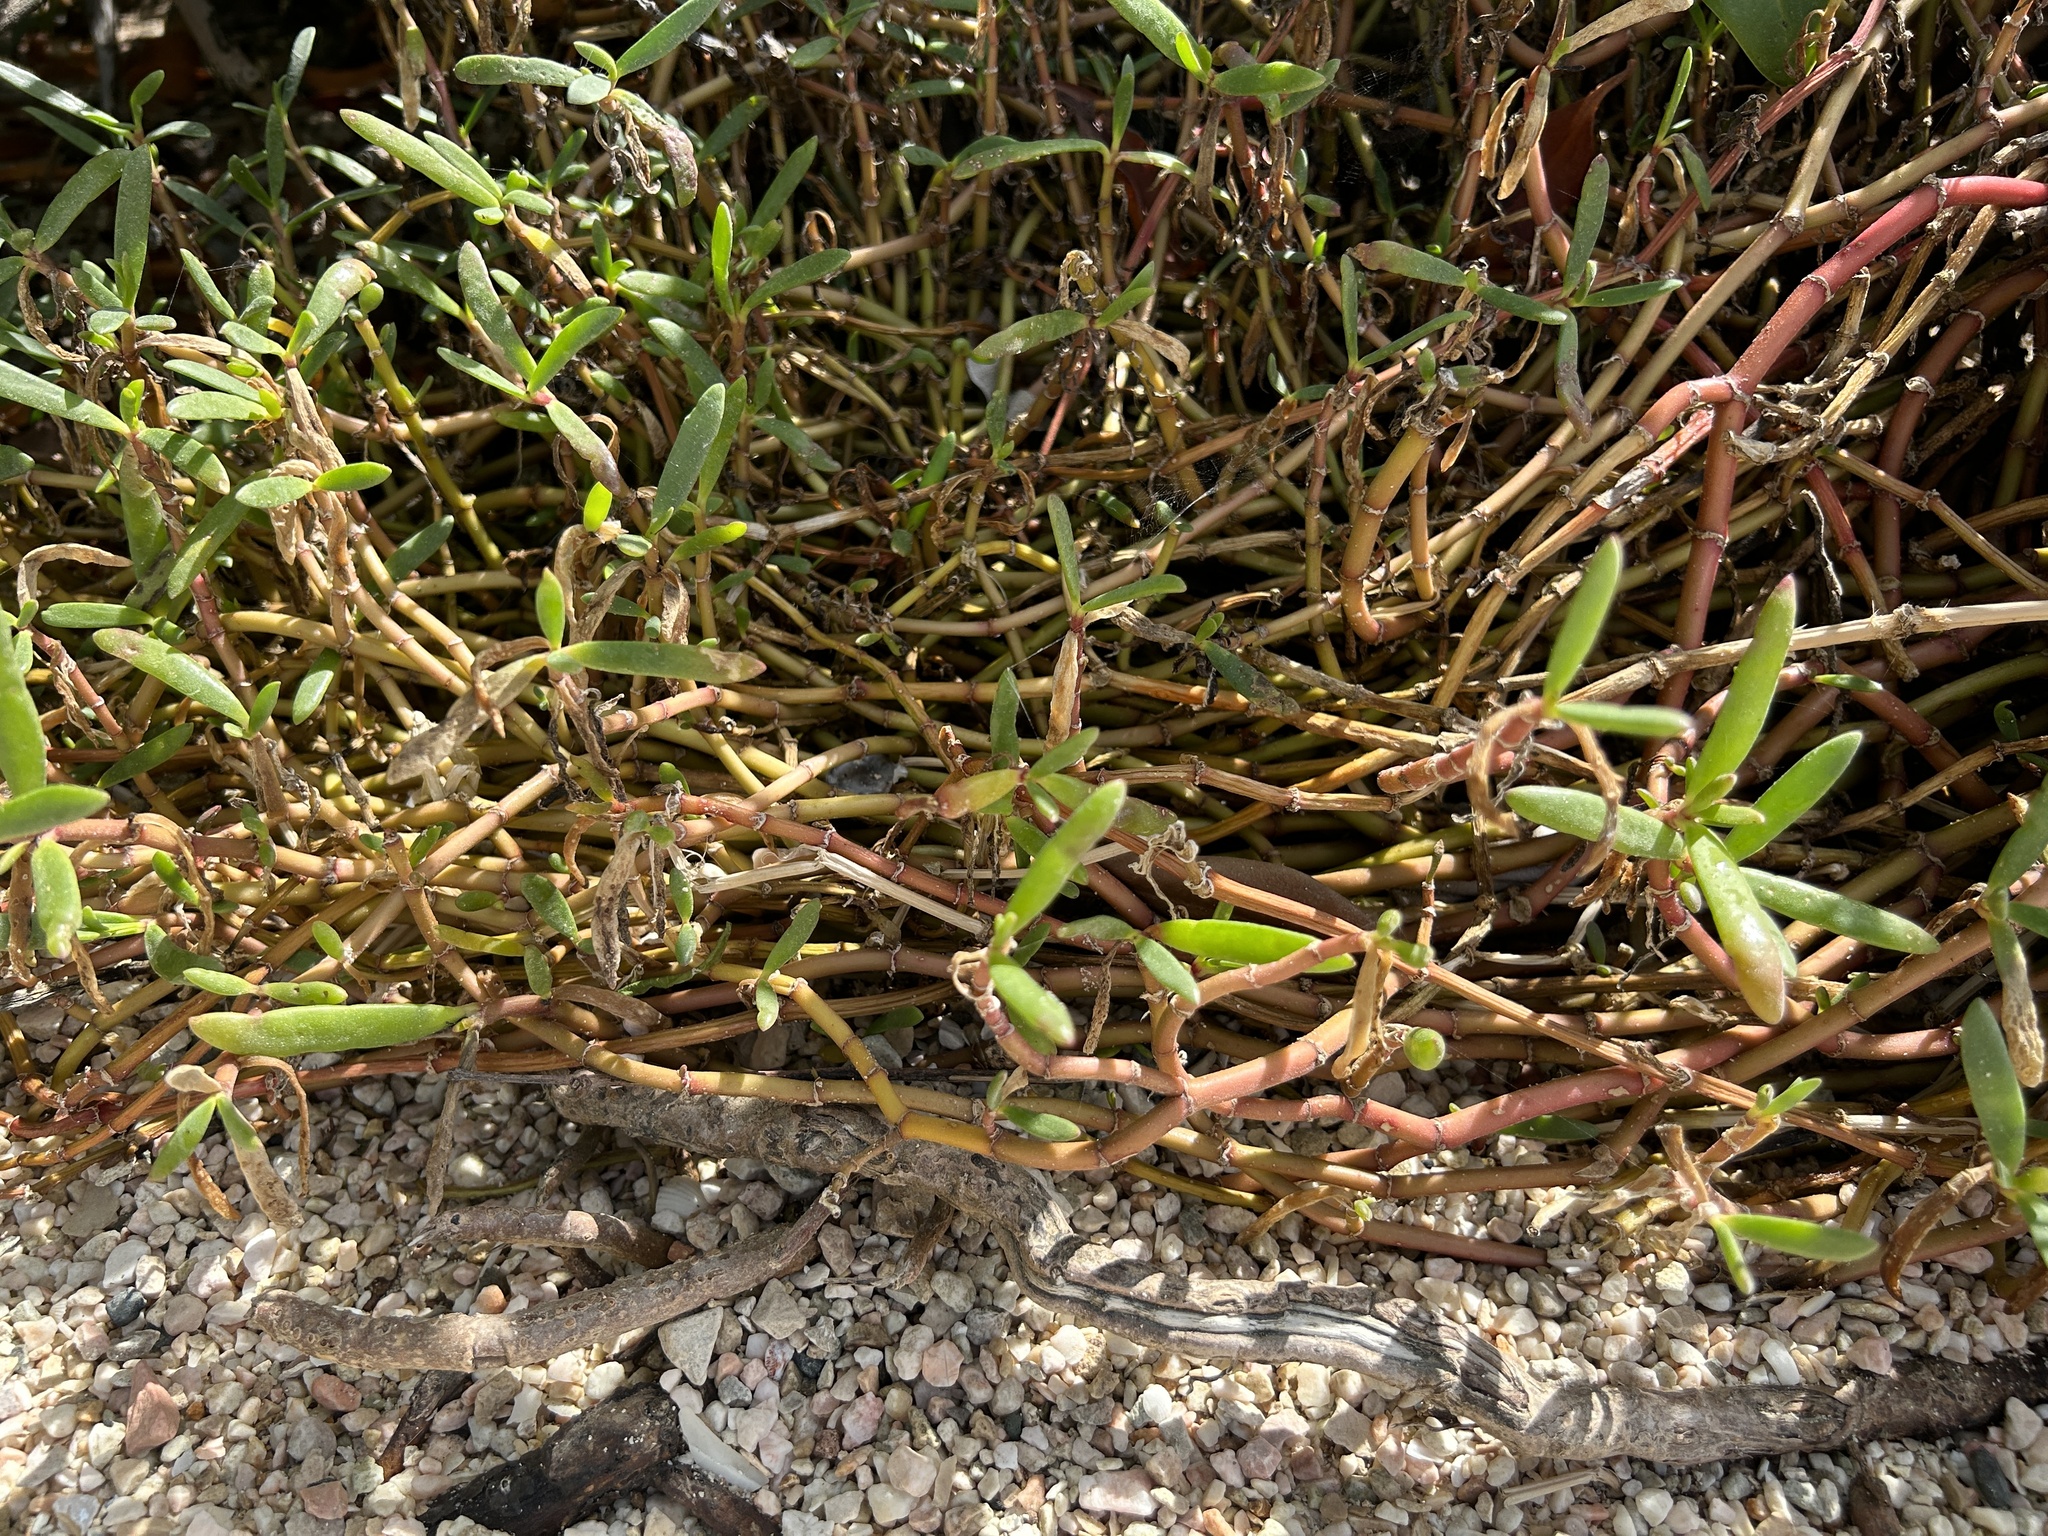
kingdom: Plantae
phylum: Tracheophyta
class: Magnoliopsida
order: Caryophyllales
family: Aizoaceae
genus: Sesuvium
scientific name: Sesuvium portulacastrum
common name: Sea-purslane
